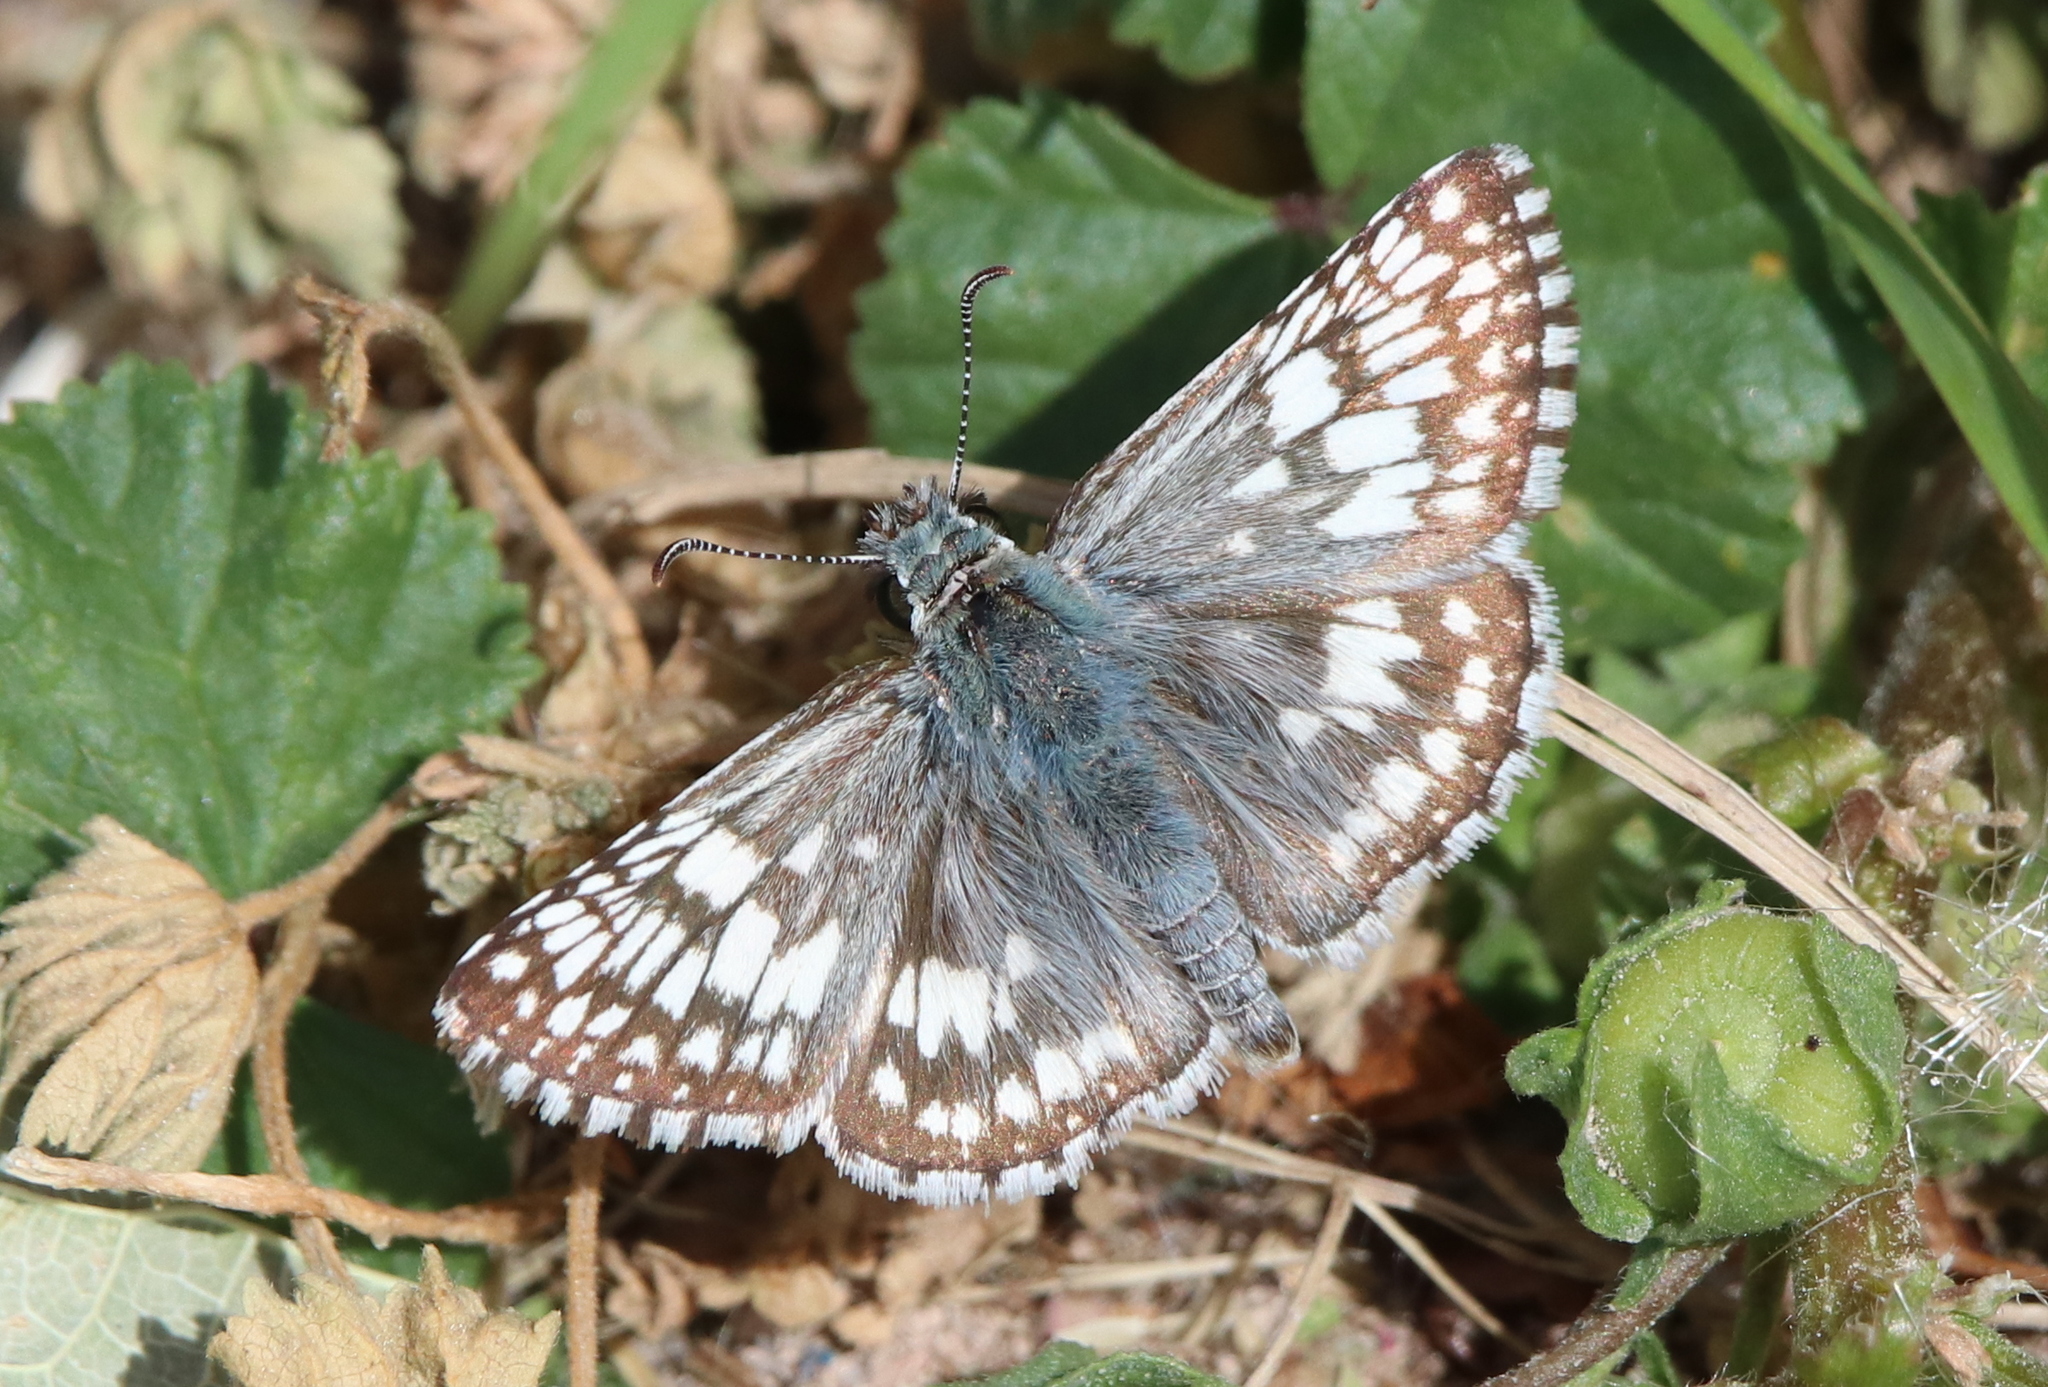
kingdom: Animalia
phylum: Arthropoda
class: Insecta
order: Lepidoptera
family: Hesperiidae
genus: Burnsius
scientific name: Burnsius communis
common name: Common checkered-skipper
